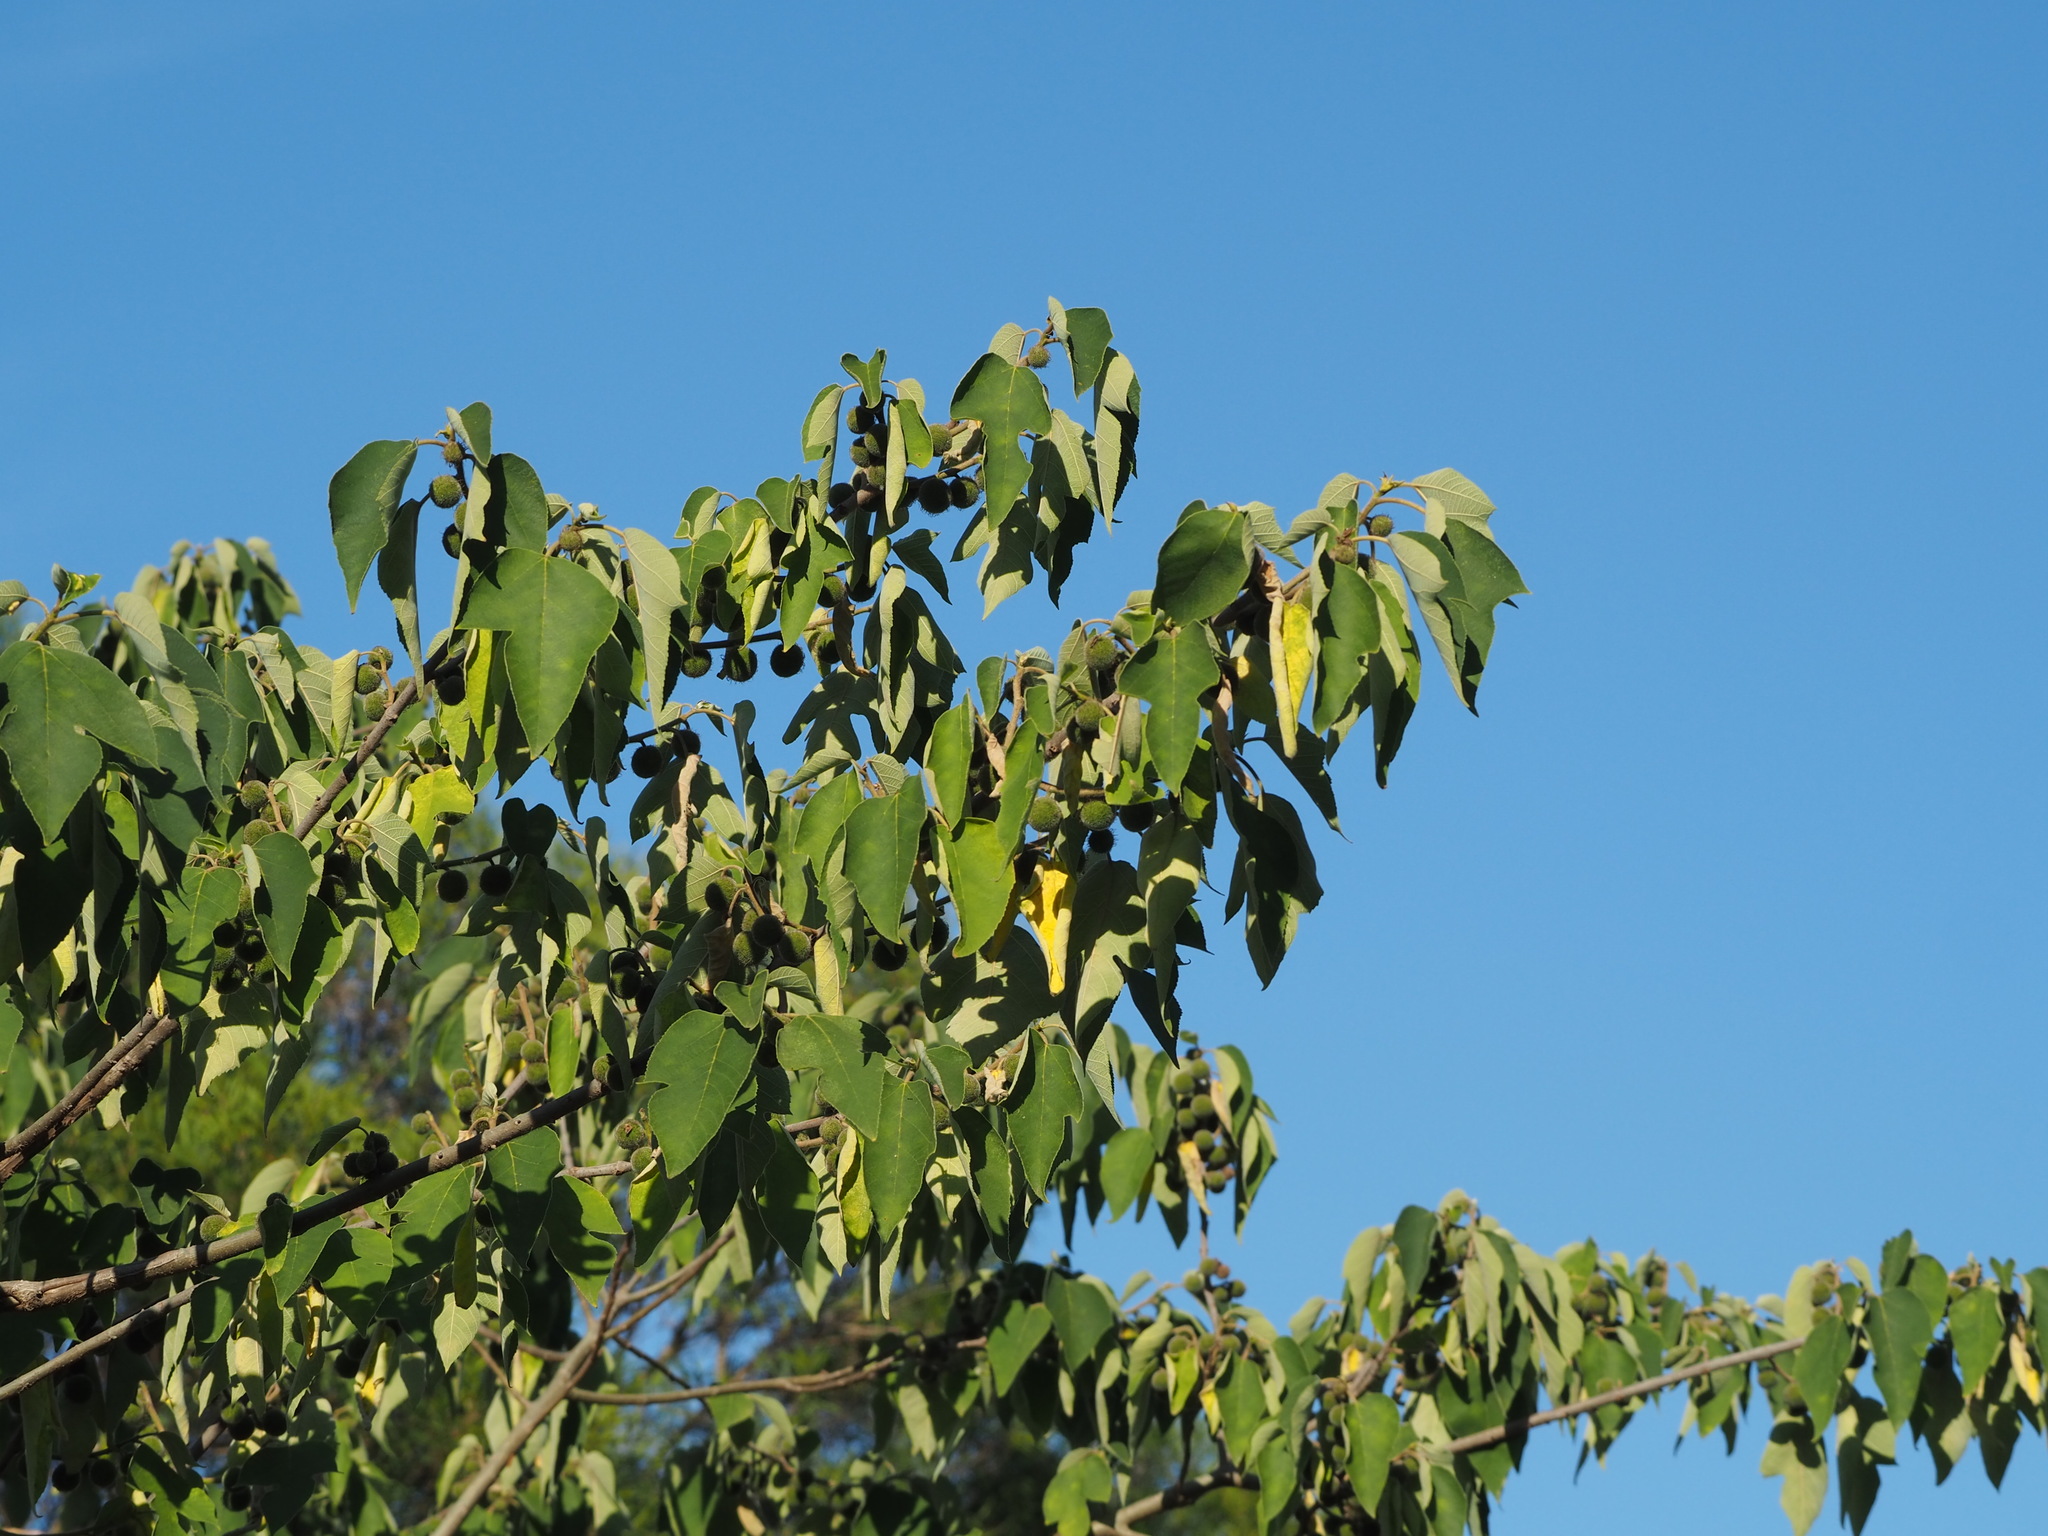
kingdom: Plantae
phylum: Tracheophyta
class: Magnoliopsida
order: Rosales
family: Moraceae
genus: Broussonetia
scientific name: Broussonetia papyrifera
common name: Paper mulberry
